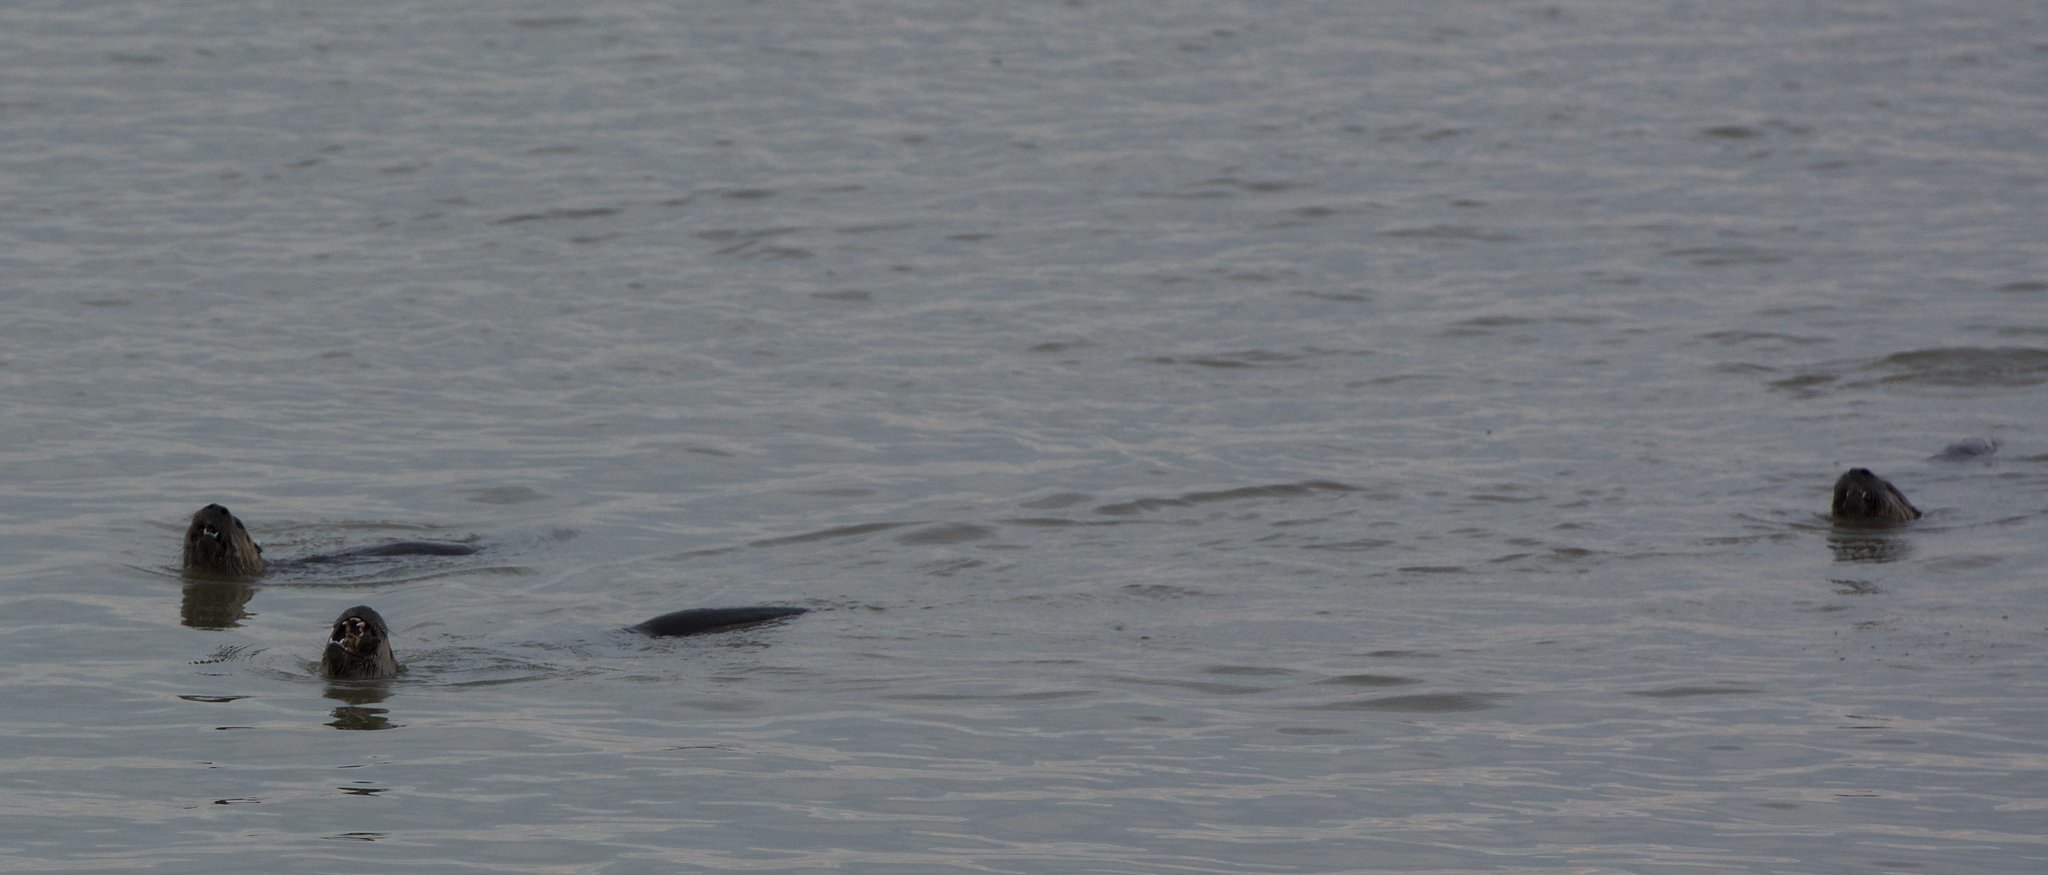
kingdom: Animalia
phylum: Chordata
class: Mammalia
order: Carnivora
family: Mustelidae
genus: Lontra
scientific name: Lontra canadensis
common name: North american river otter
